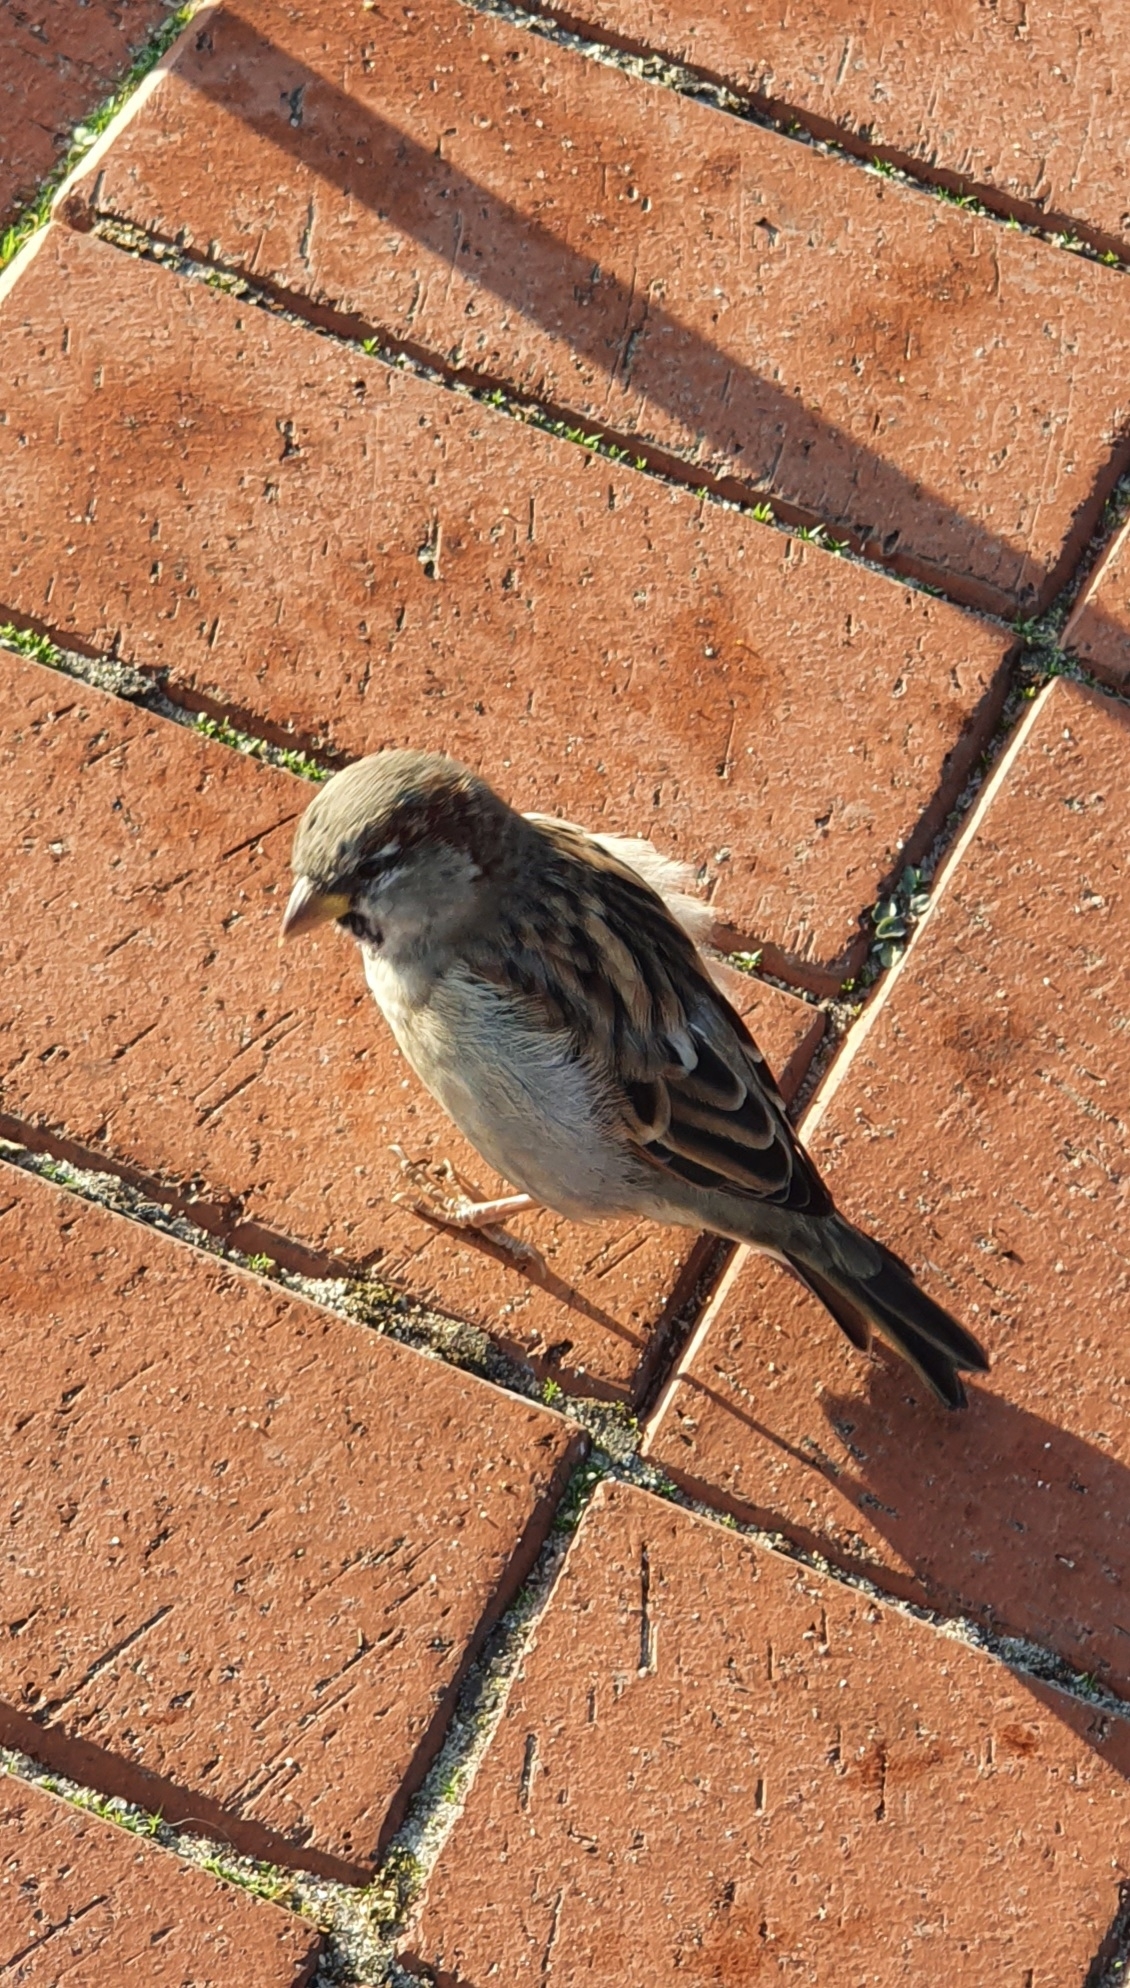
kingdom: Animalia
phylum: Chordata
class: Aves
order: Passeriformes
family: Passeridae
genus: Passer
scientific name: Passer domesticus
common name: House sparrow
